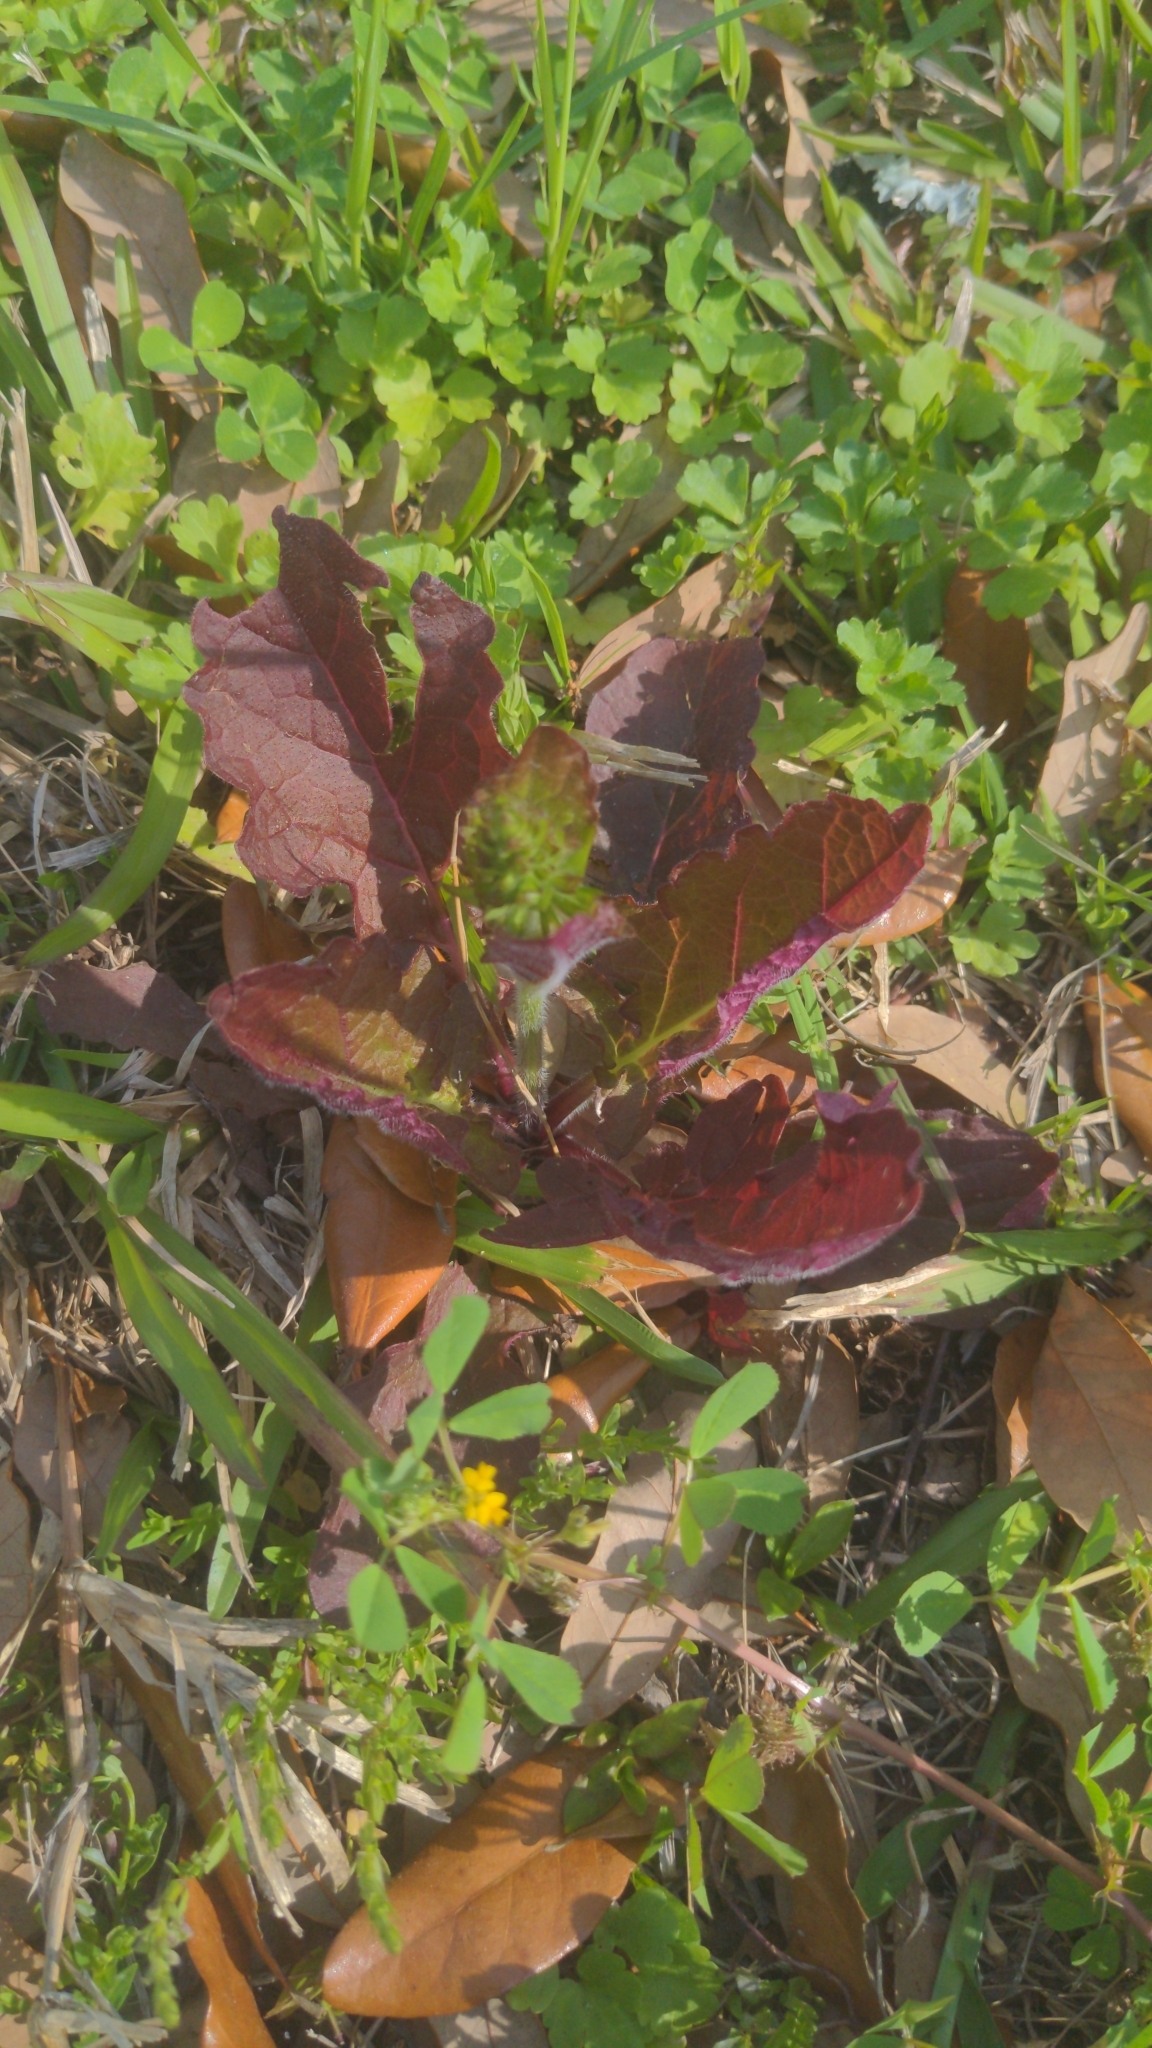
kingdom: Plantae
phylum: Tracheophyta
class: Magnoliopsida
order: Lamiales
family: Lamiaceae
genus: Salvia
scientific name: Salvia lyrata
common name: Cancerweed
